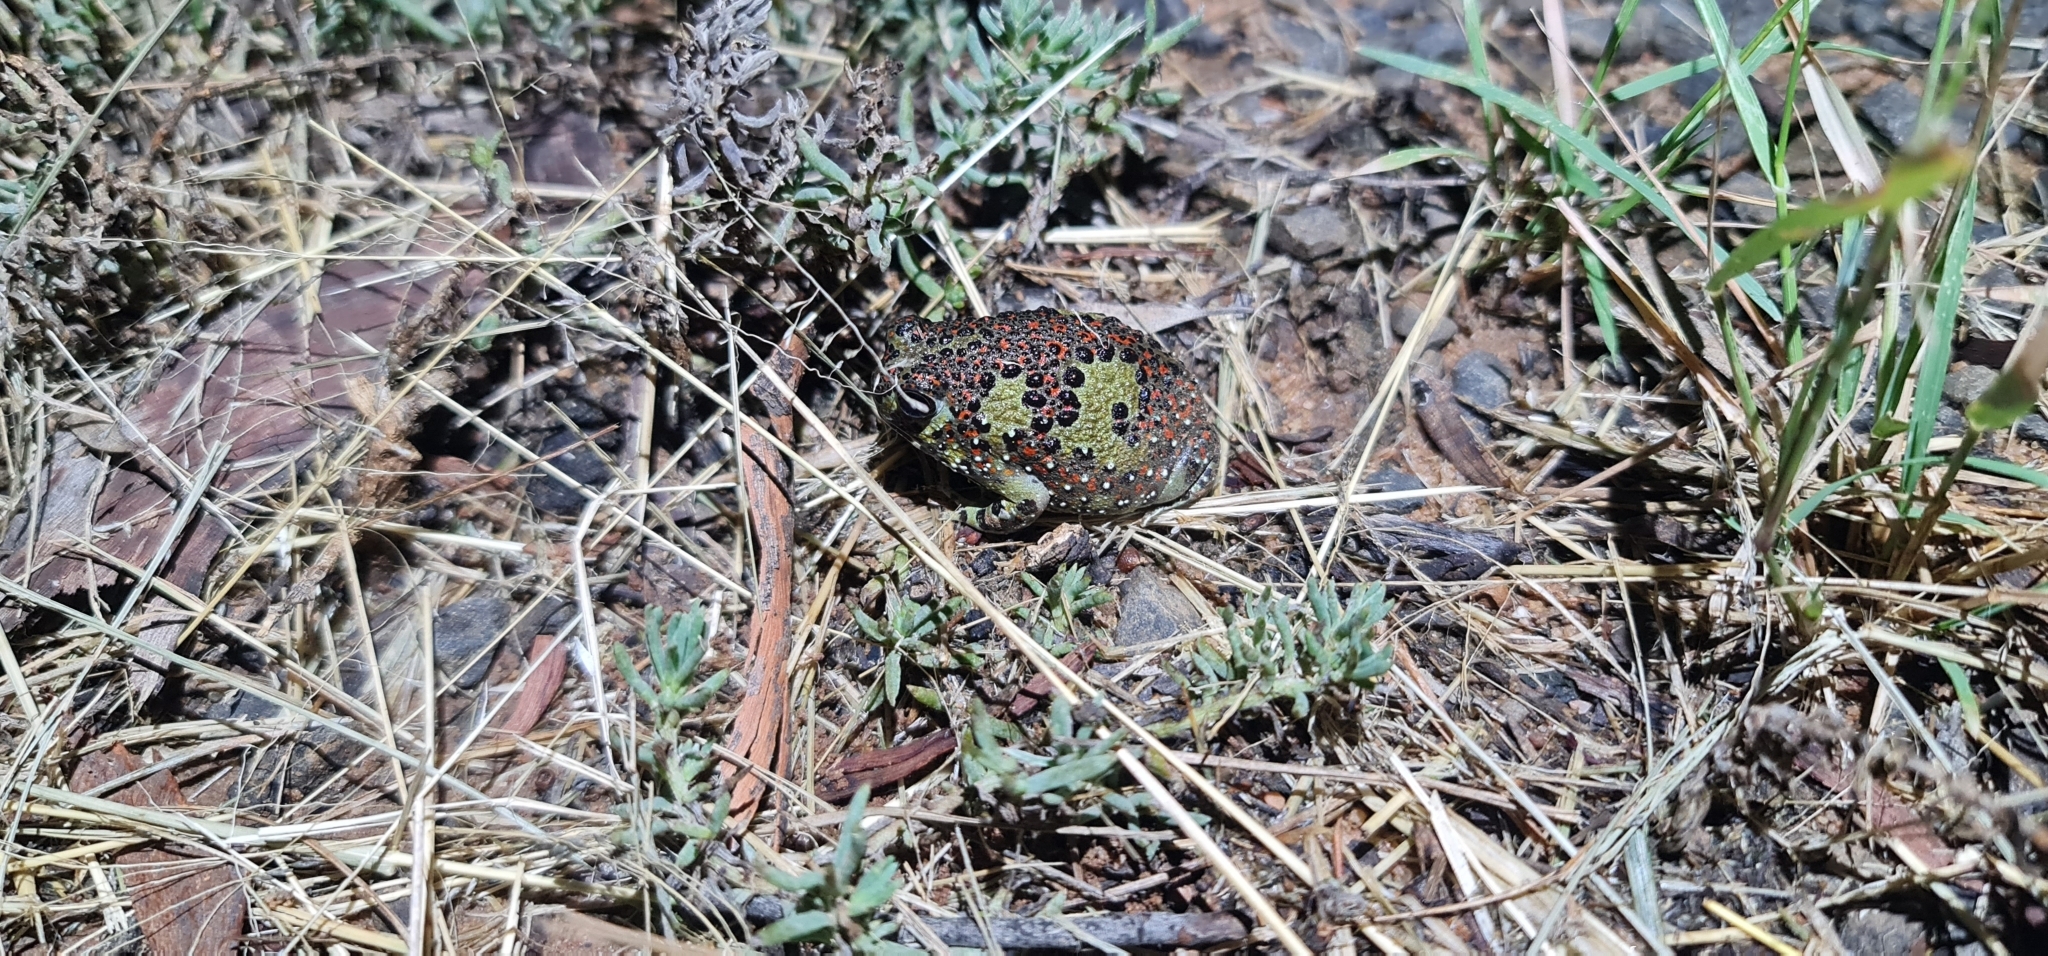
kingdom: Animalia
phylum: Chordata
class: Amphibia
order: Anura
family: Limnodynastidae
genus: Notaden
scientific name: Notaden bennettii
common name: Crucifix frog
